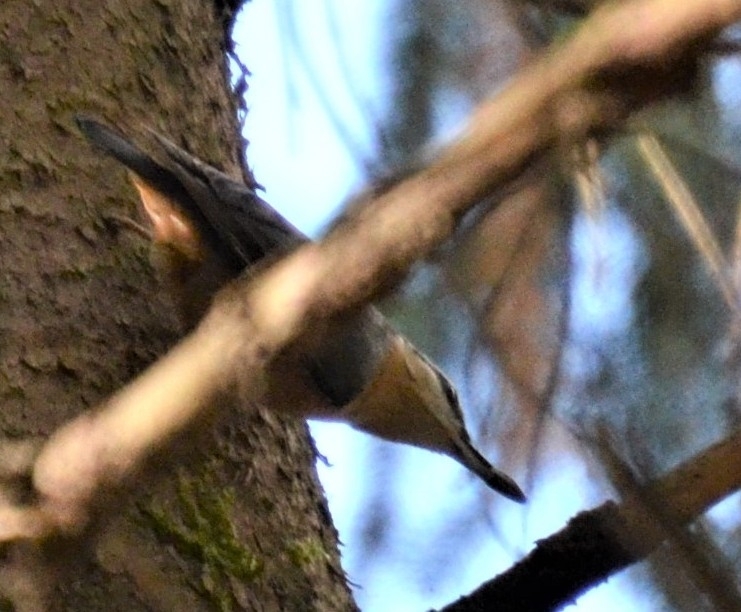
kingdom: Animalia
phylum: Chordata
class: Aves
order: Passeriformes
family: Sittidae
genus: Sitta
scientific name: Sitta europaea
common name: Eurasian nuthatch
